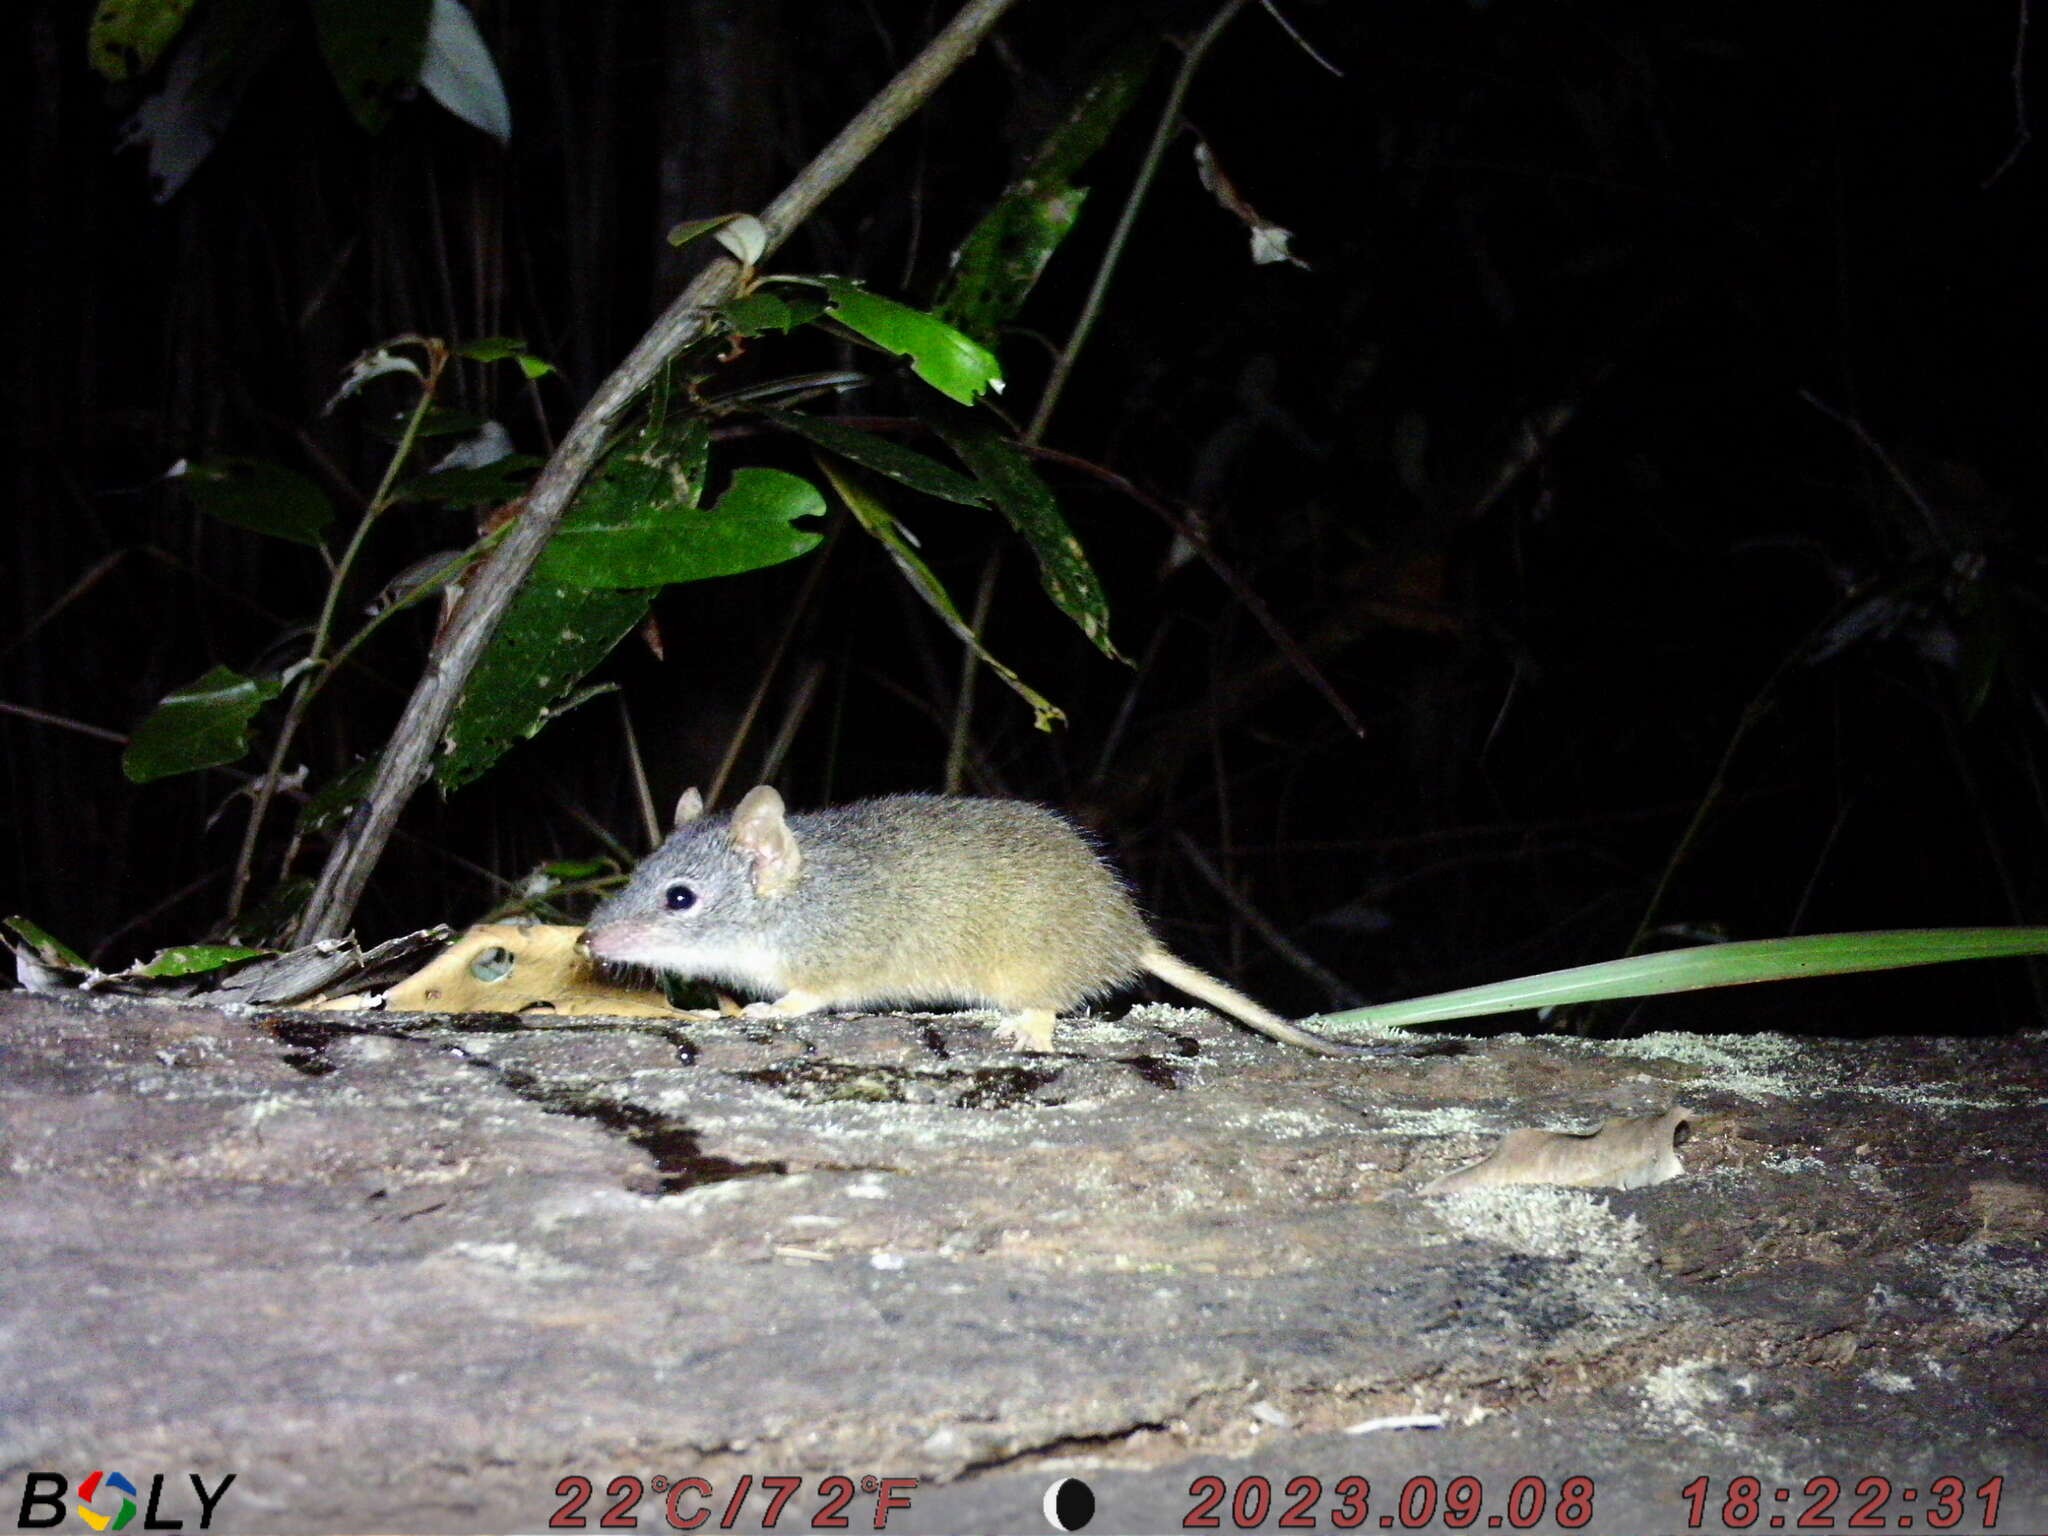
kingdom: Animalia
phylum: Chordata
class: Mammalia
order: Dasyuromorphia
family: Dasyuridae
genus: Antechinus
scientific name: Antechinus flavipes
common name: Yellow-footed antechinus
